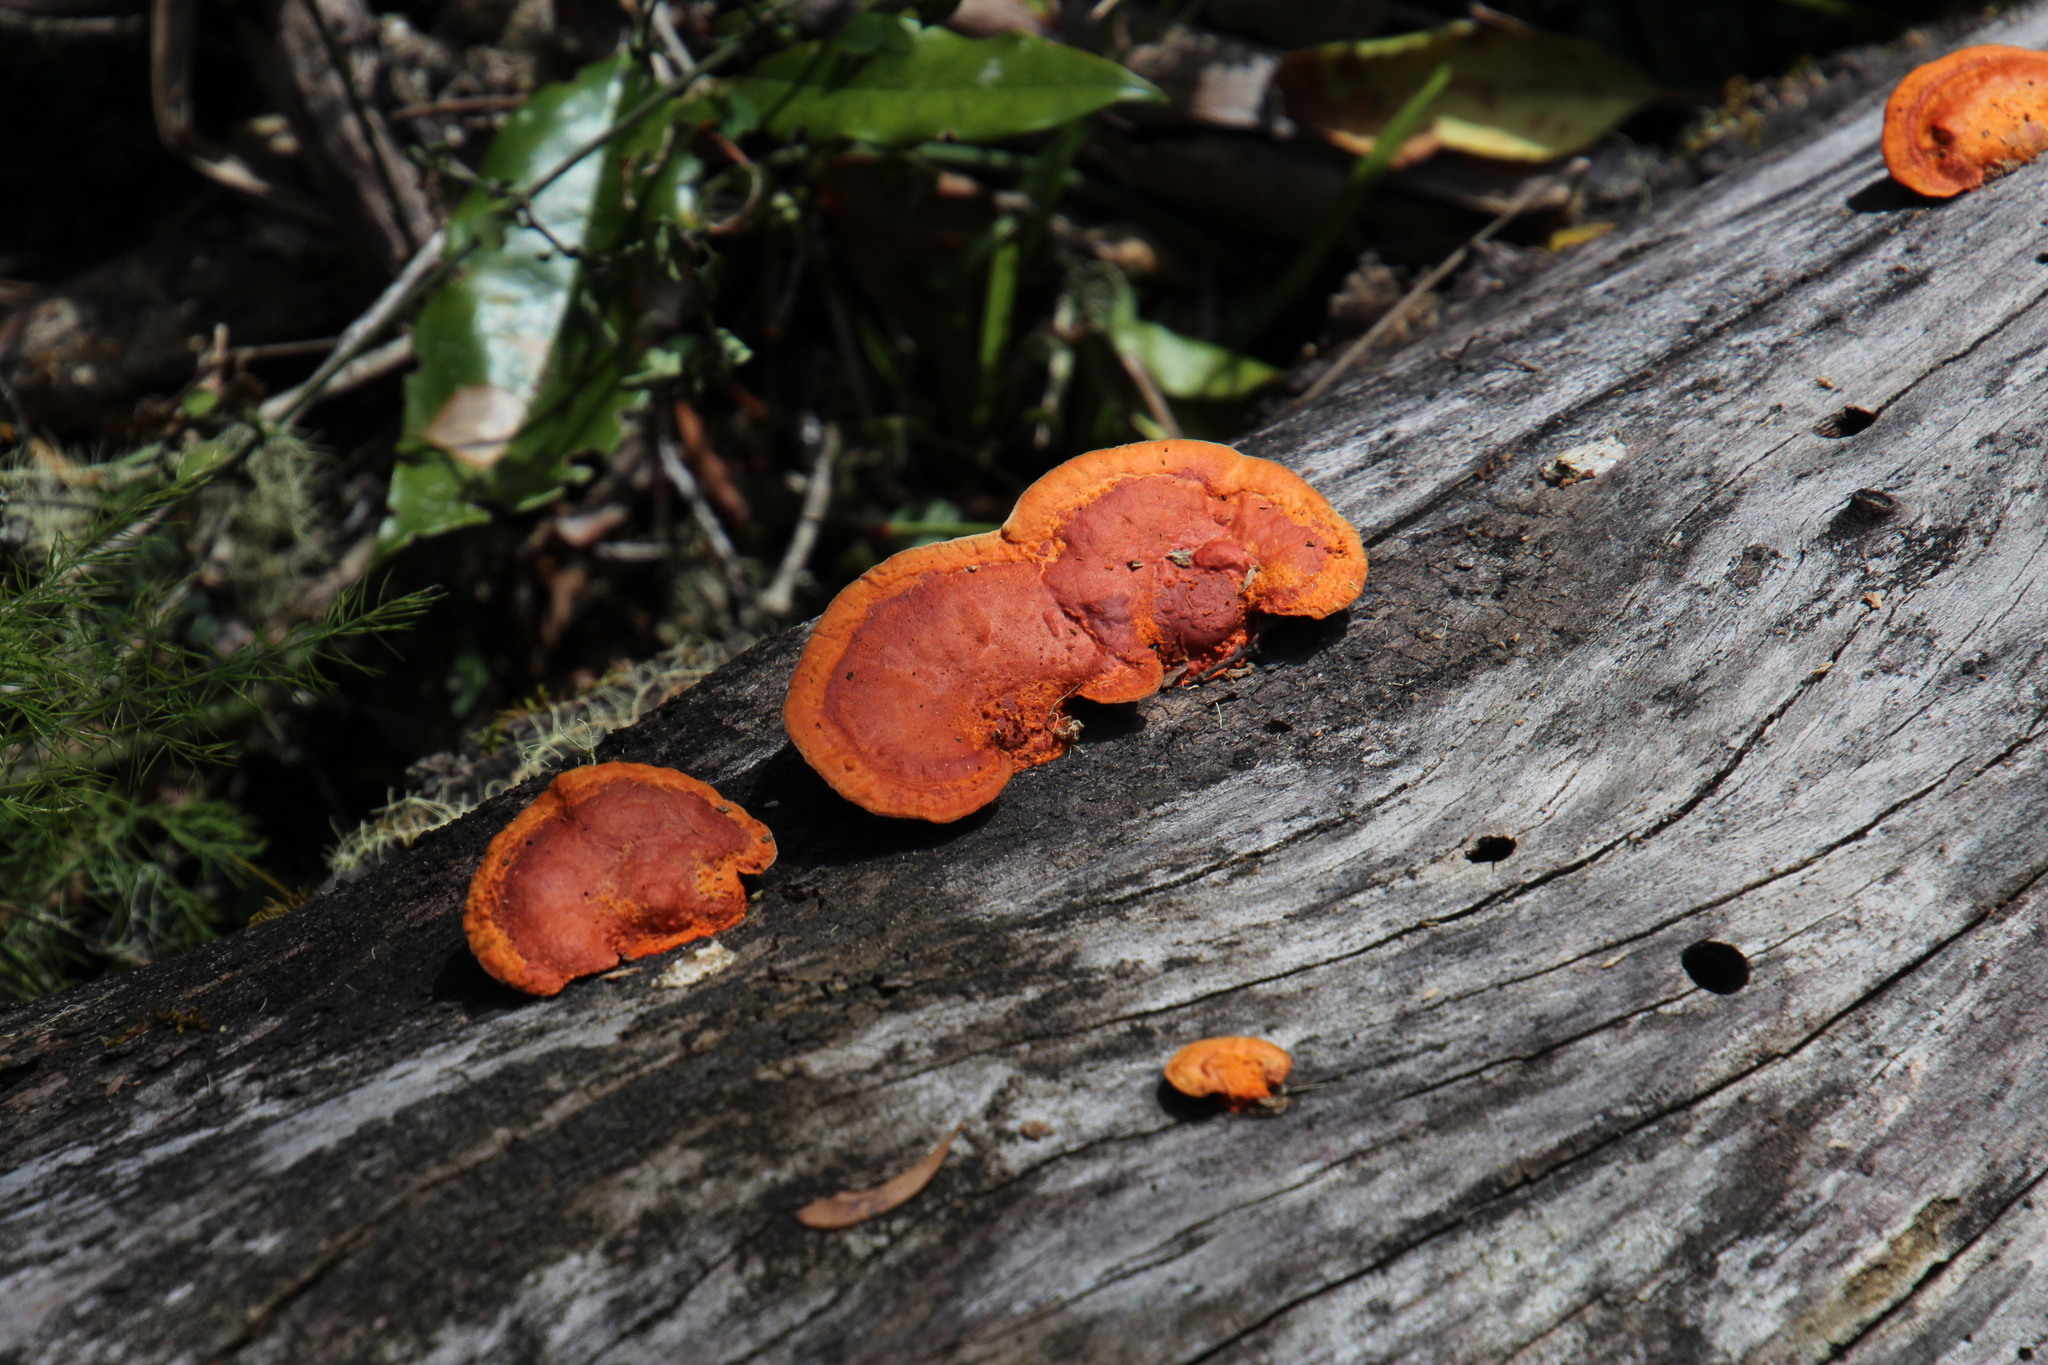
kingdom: Fungi
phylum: Basidiomycota
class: Agaricomycetes
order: Polyporales
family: Polyporaceae
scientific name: Polyporaceae
